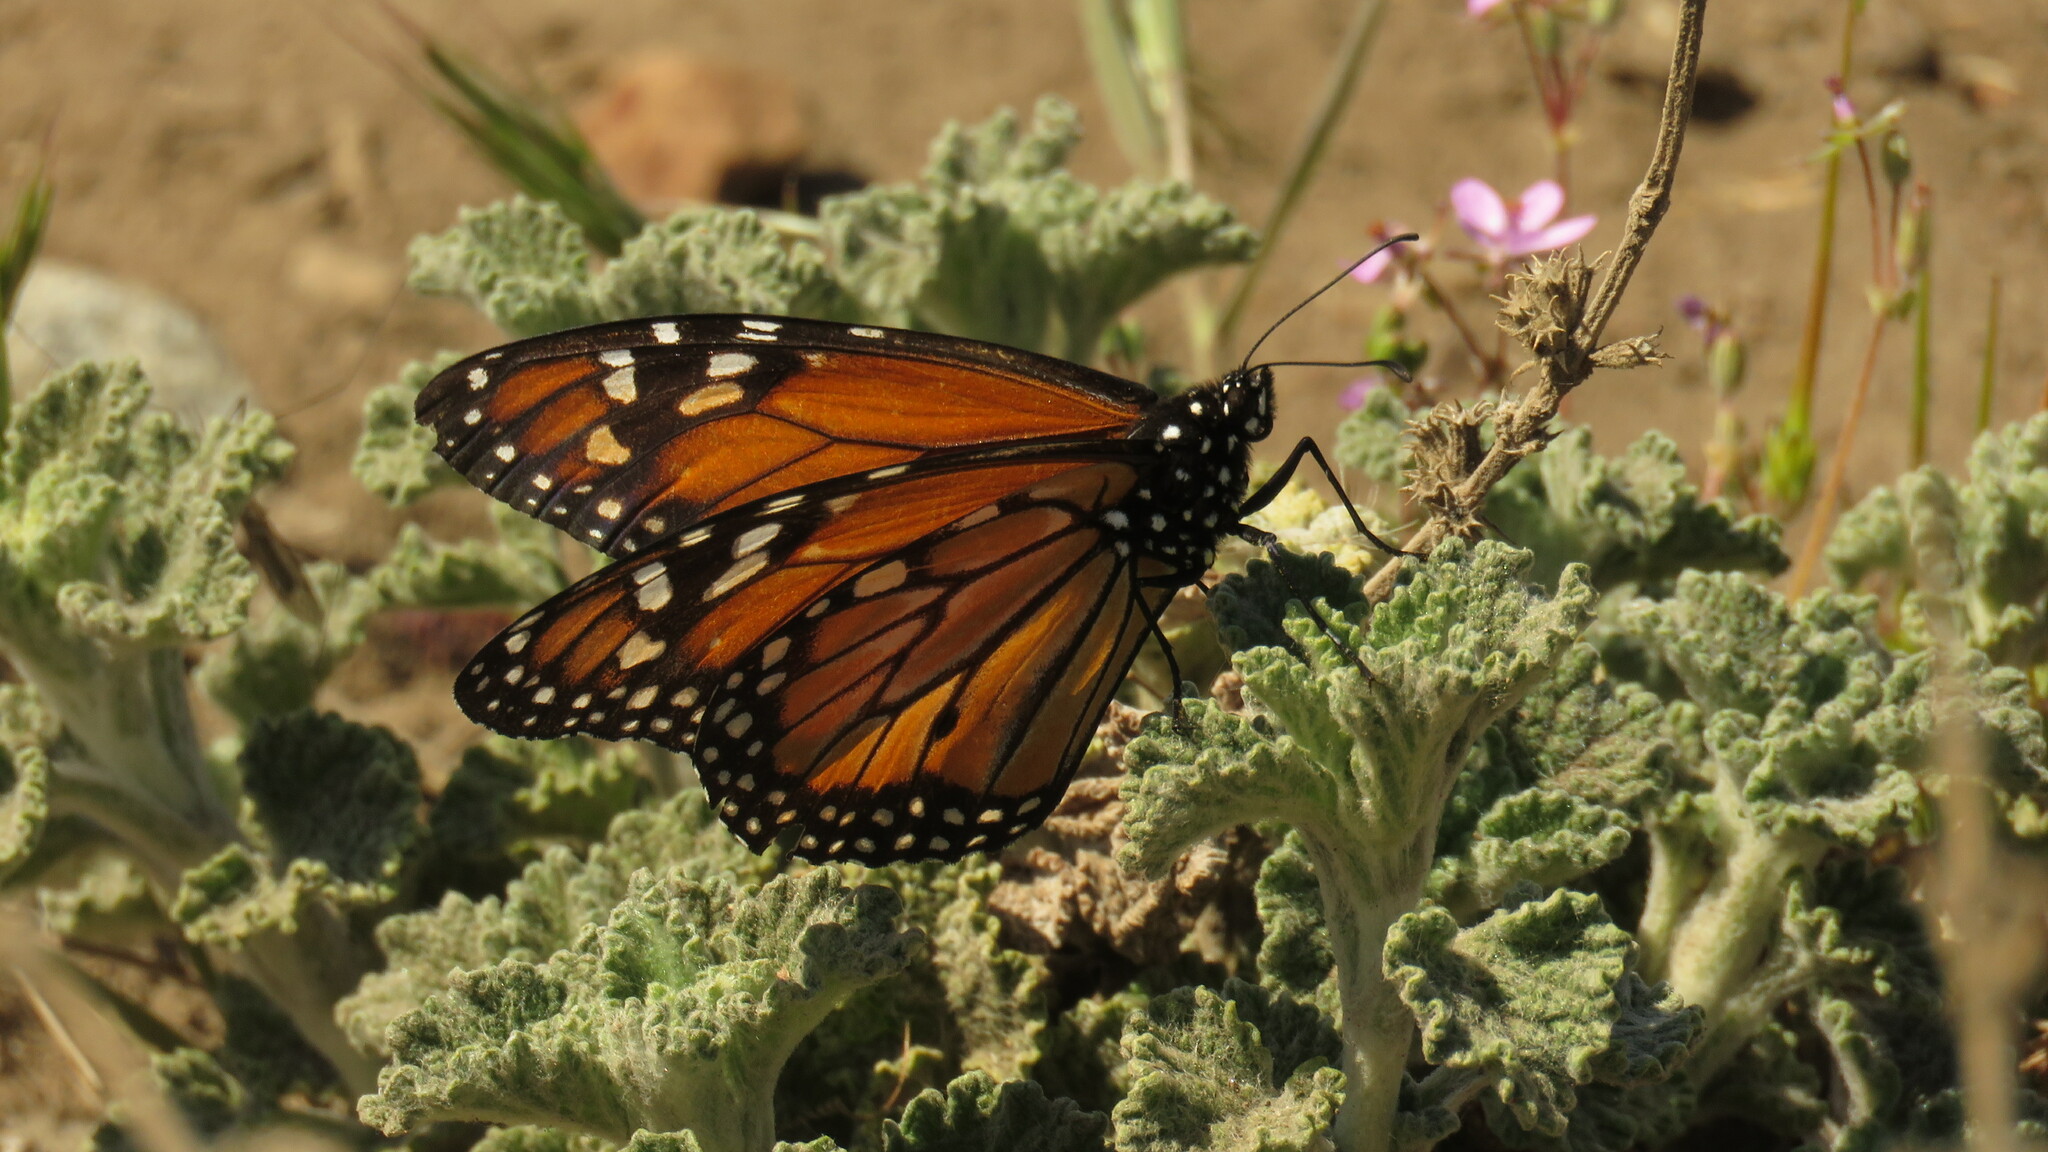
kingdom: Animalia
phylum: Arthropoda
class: Insecta
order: Lepidoptera
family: Nymphalidae
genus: Danaus
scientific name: Danaus erippus
